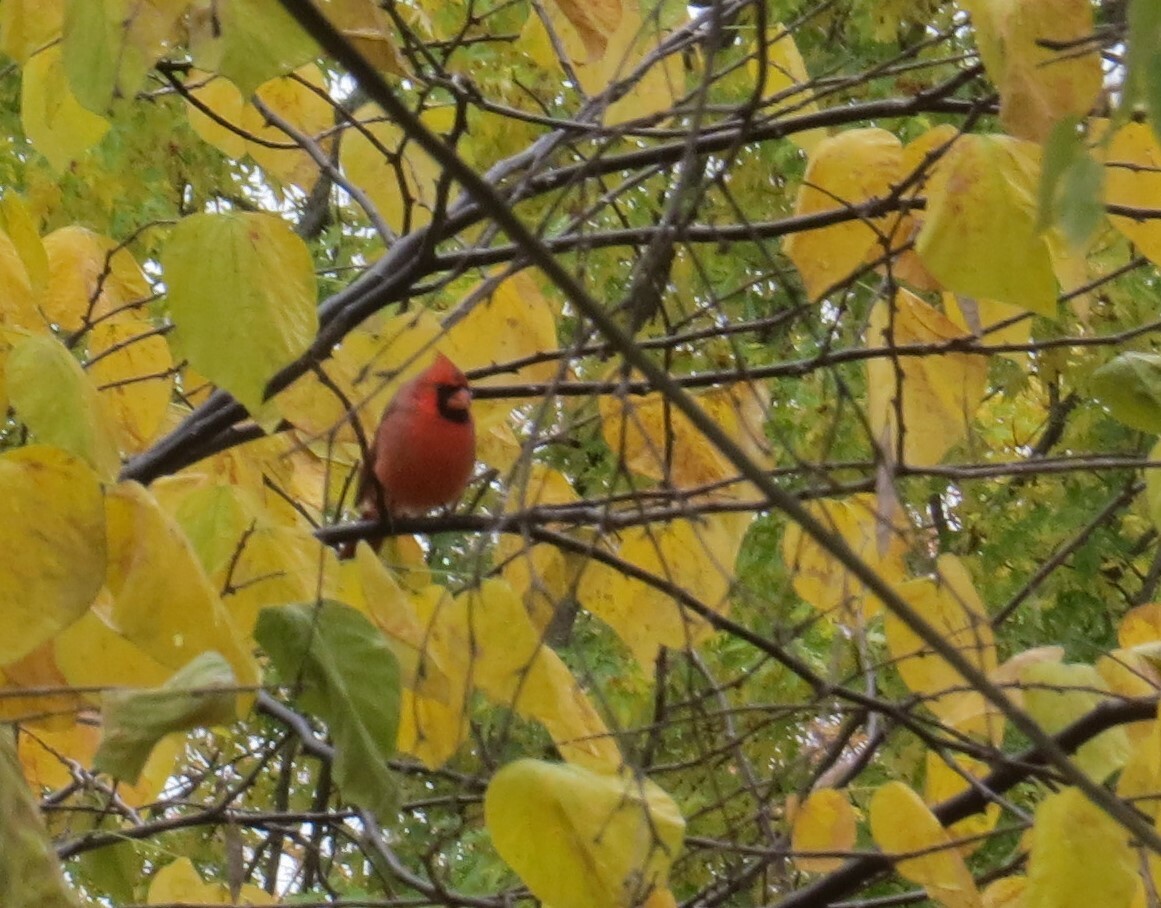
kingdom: Animalia
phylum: Chordata
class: Aves
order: Passeriformes
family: Cardinalidae
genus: Cardinalis
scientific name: Cardinalis cardinalis
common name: Northern cardinal
